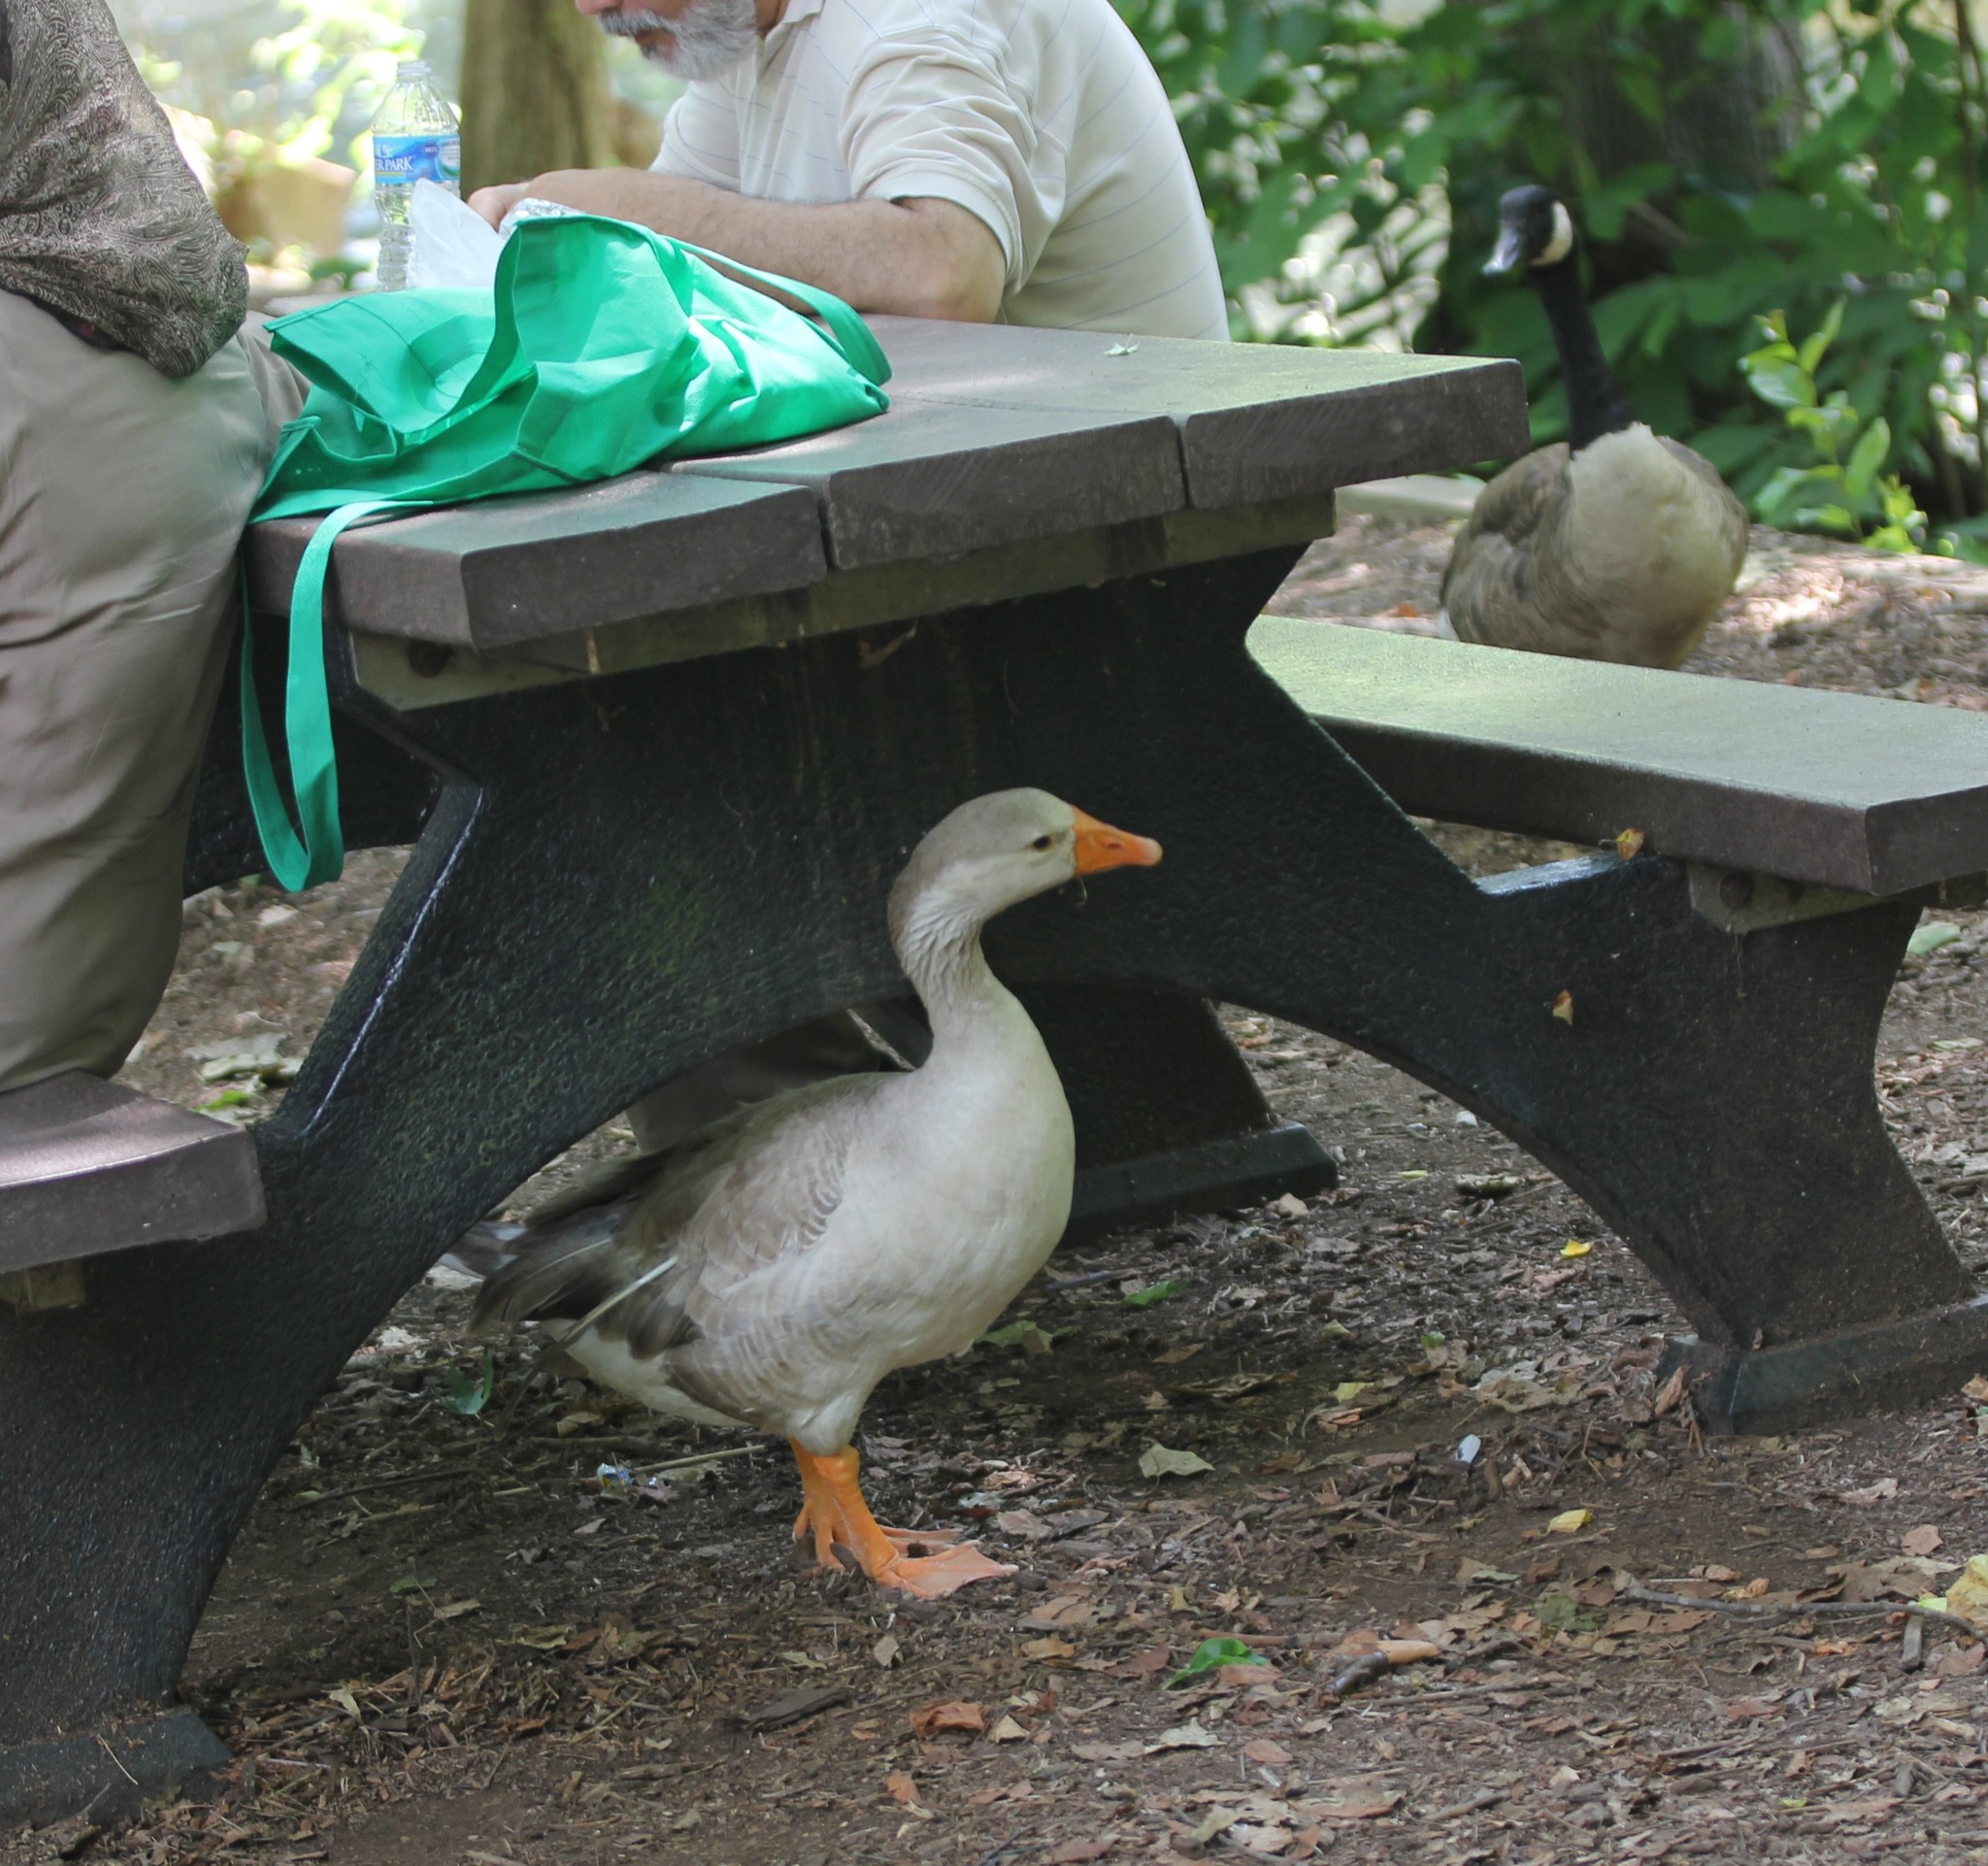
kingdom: Animalia
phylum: Chordata
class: Aves
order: Anseriformes
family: Anatidae
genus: Anser
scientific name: Anser anser
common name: Greylag goose
